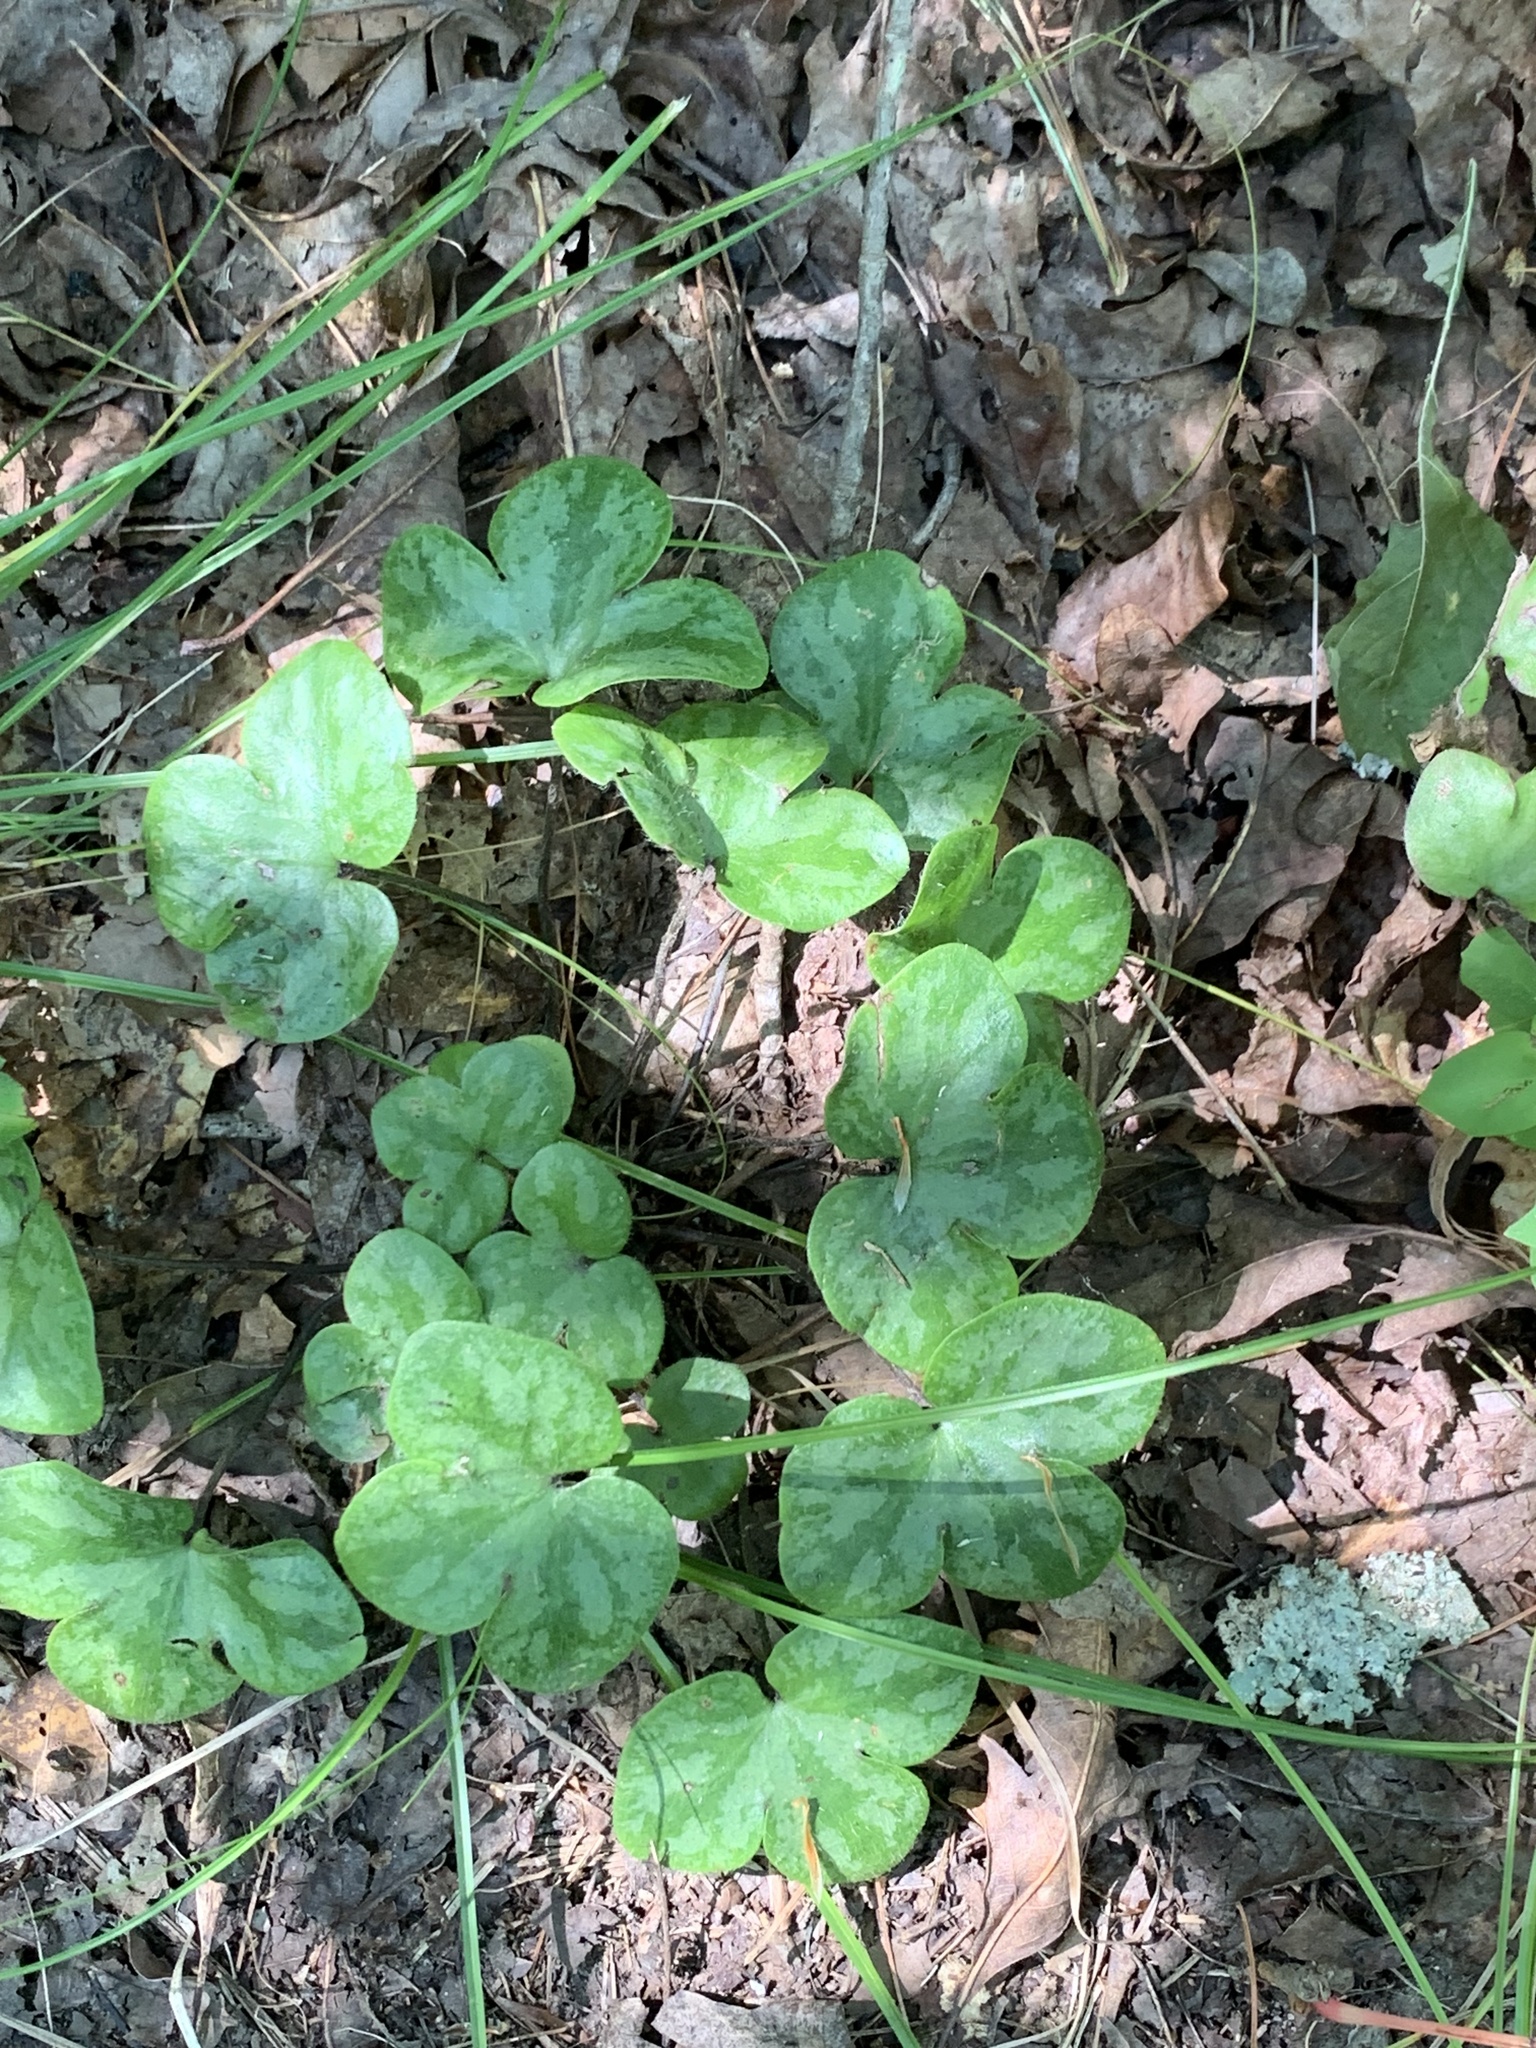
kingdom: Plantae
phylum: Tracheophyta
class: Magnoliopsida
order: Ranunculales
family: Ranunculaceae
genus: Hepatica
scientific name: Hepatica americana
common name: American hepatica
